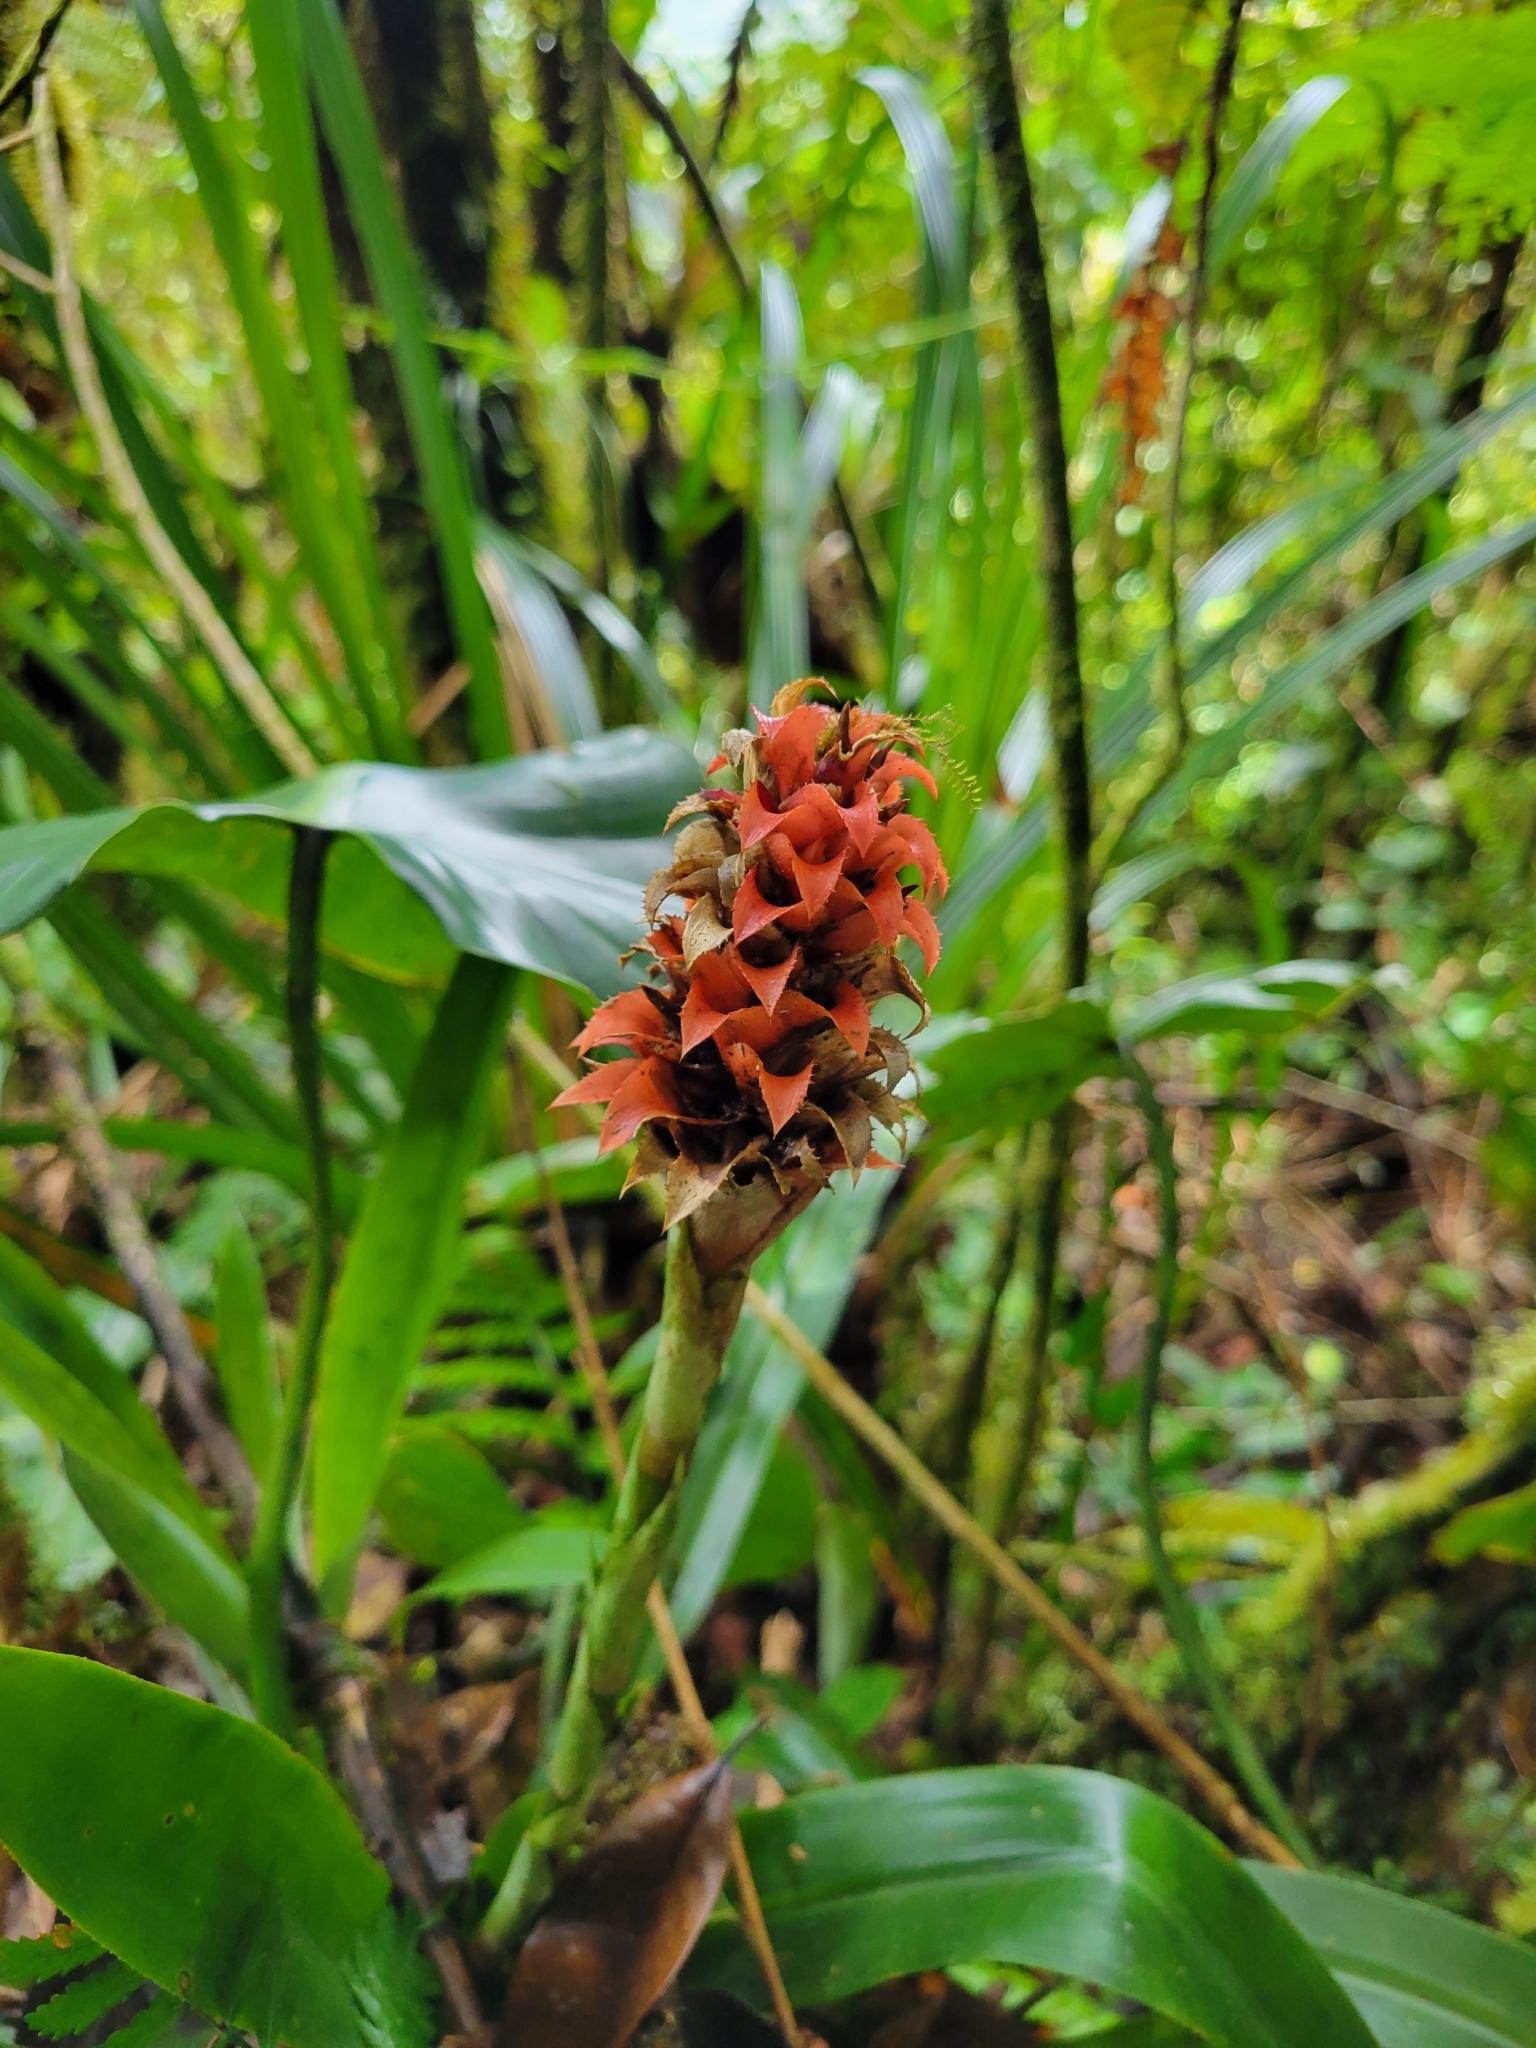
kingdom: Plantae
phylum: Tracheophyta
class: Liliopsida
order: Poales
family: Bromeliaceae
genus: Ronnbergia
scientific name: Ronnbergia veitchii
